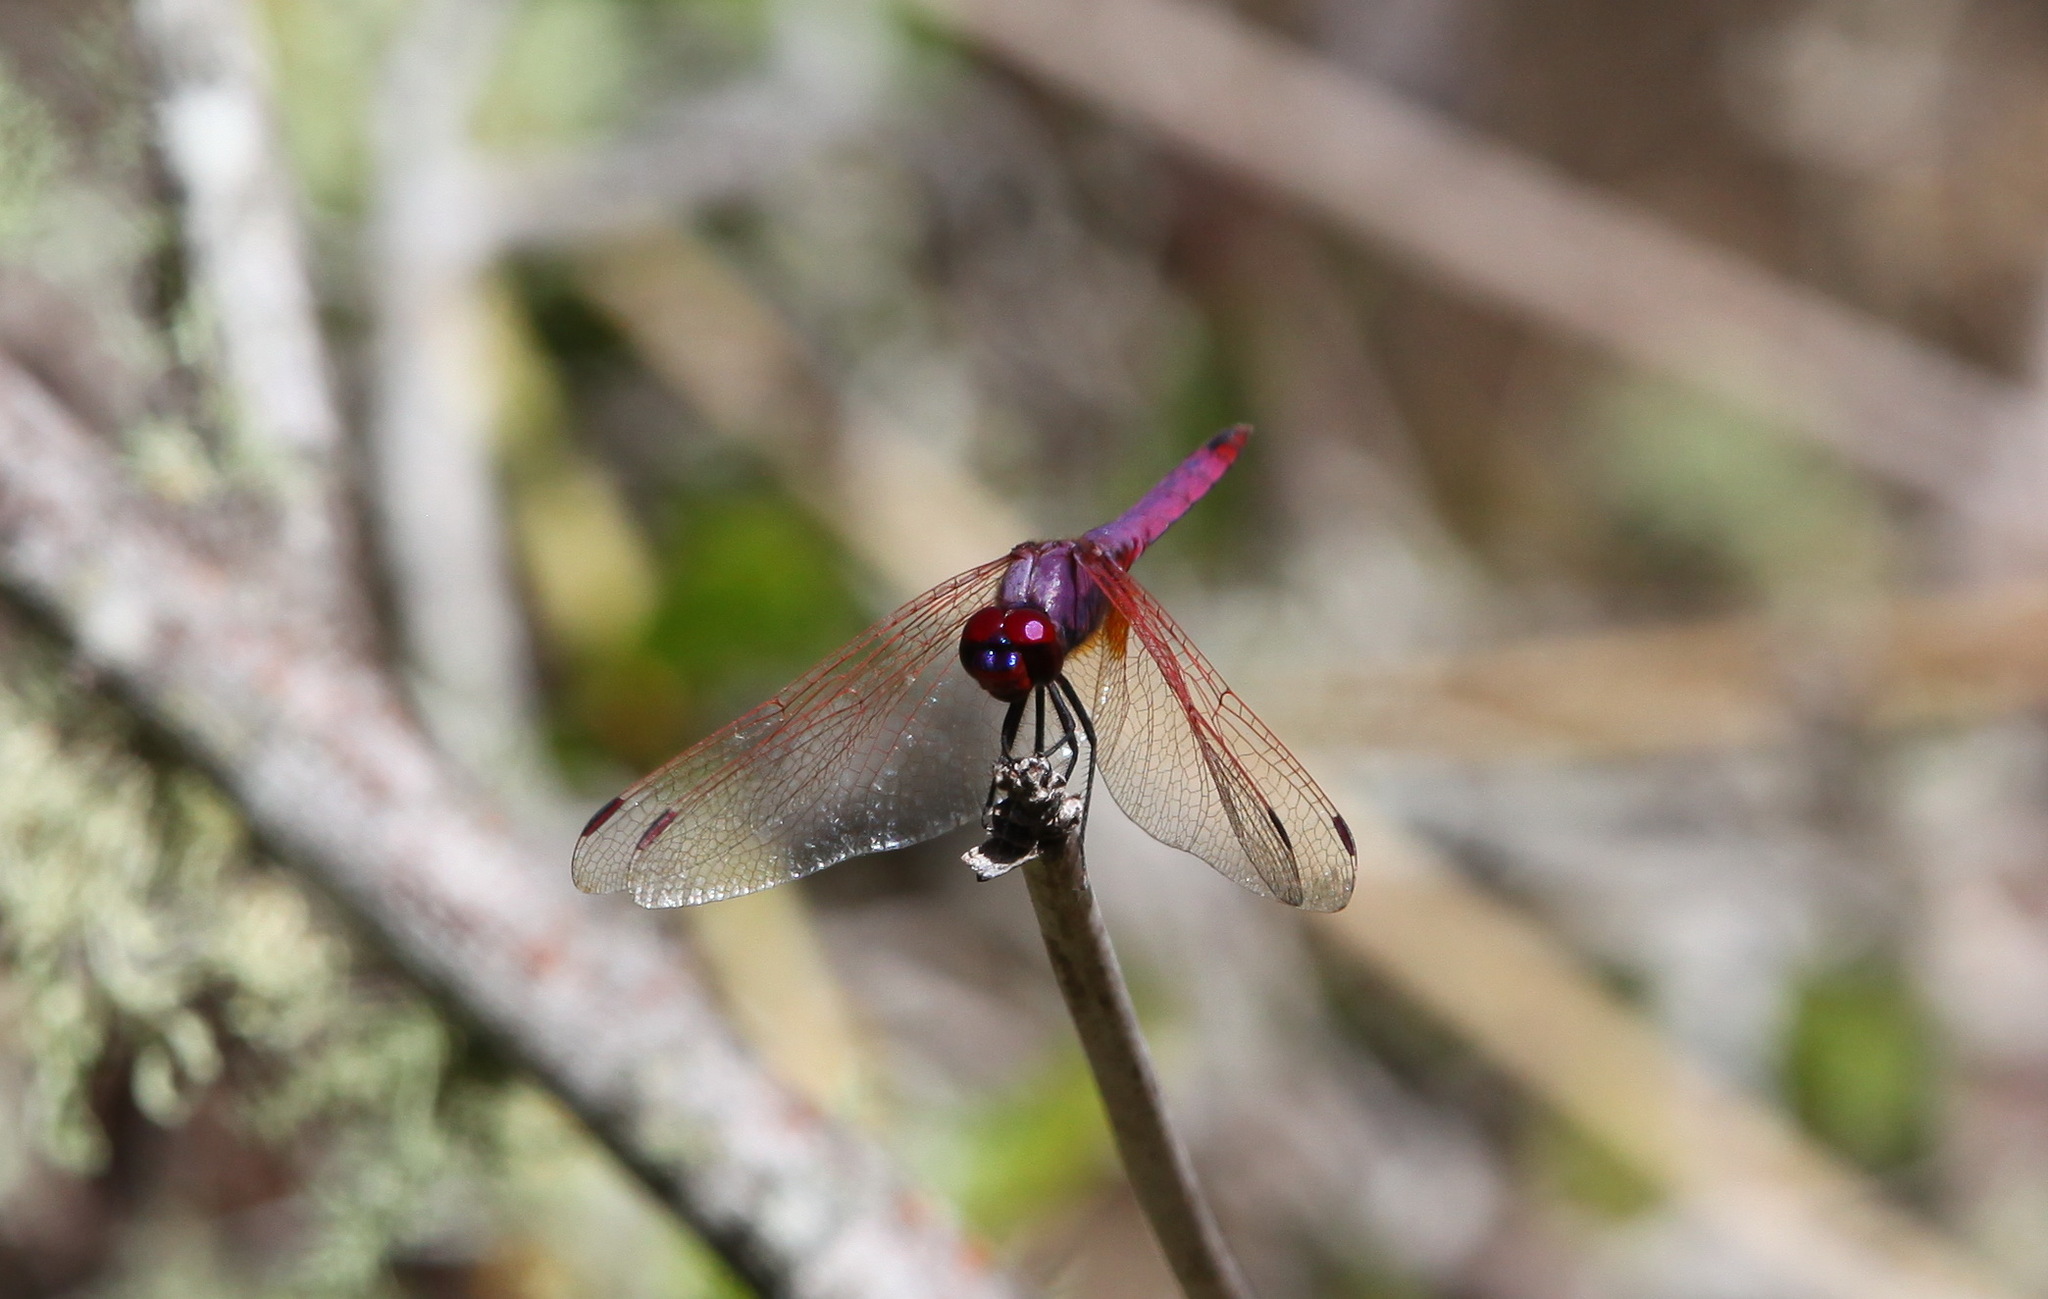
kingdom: Animalia
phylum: Arthropoda
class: Insecta
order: Odonata
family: Libellulidae
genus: Trithemis
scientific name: Trithemis annulata
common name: Violet dropwing
